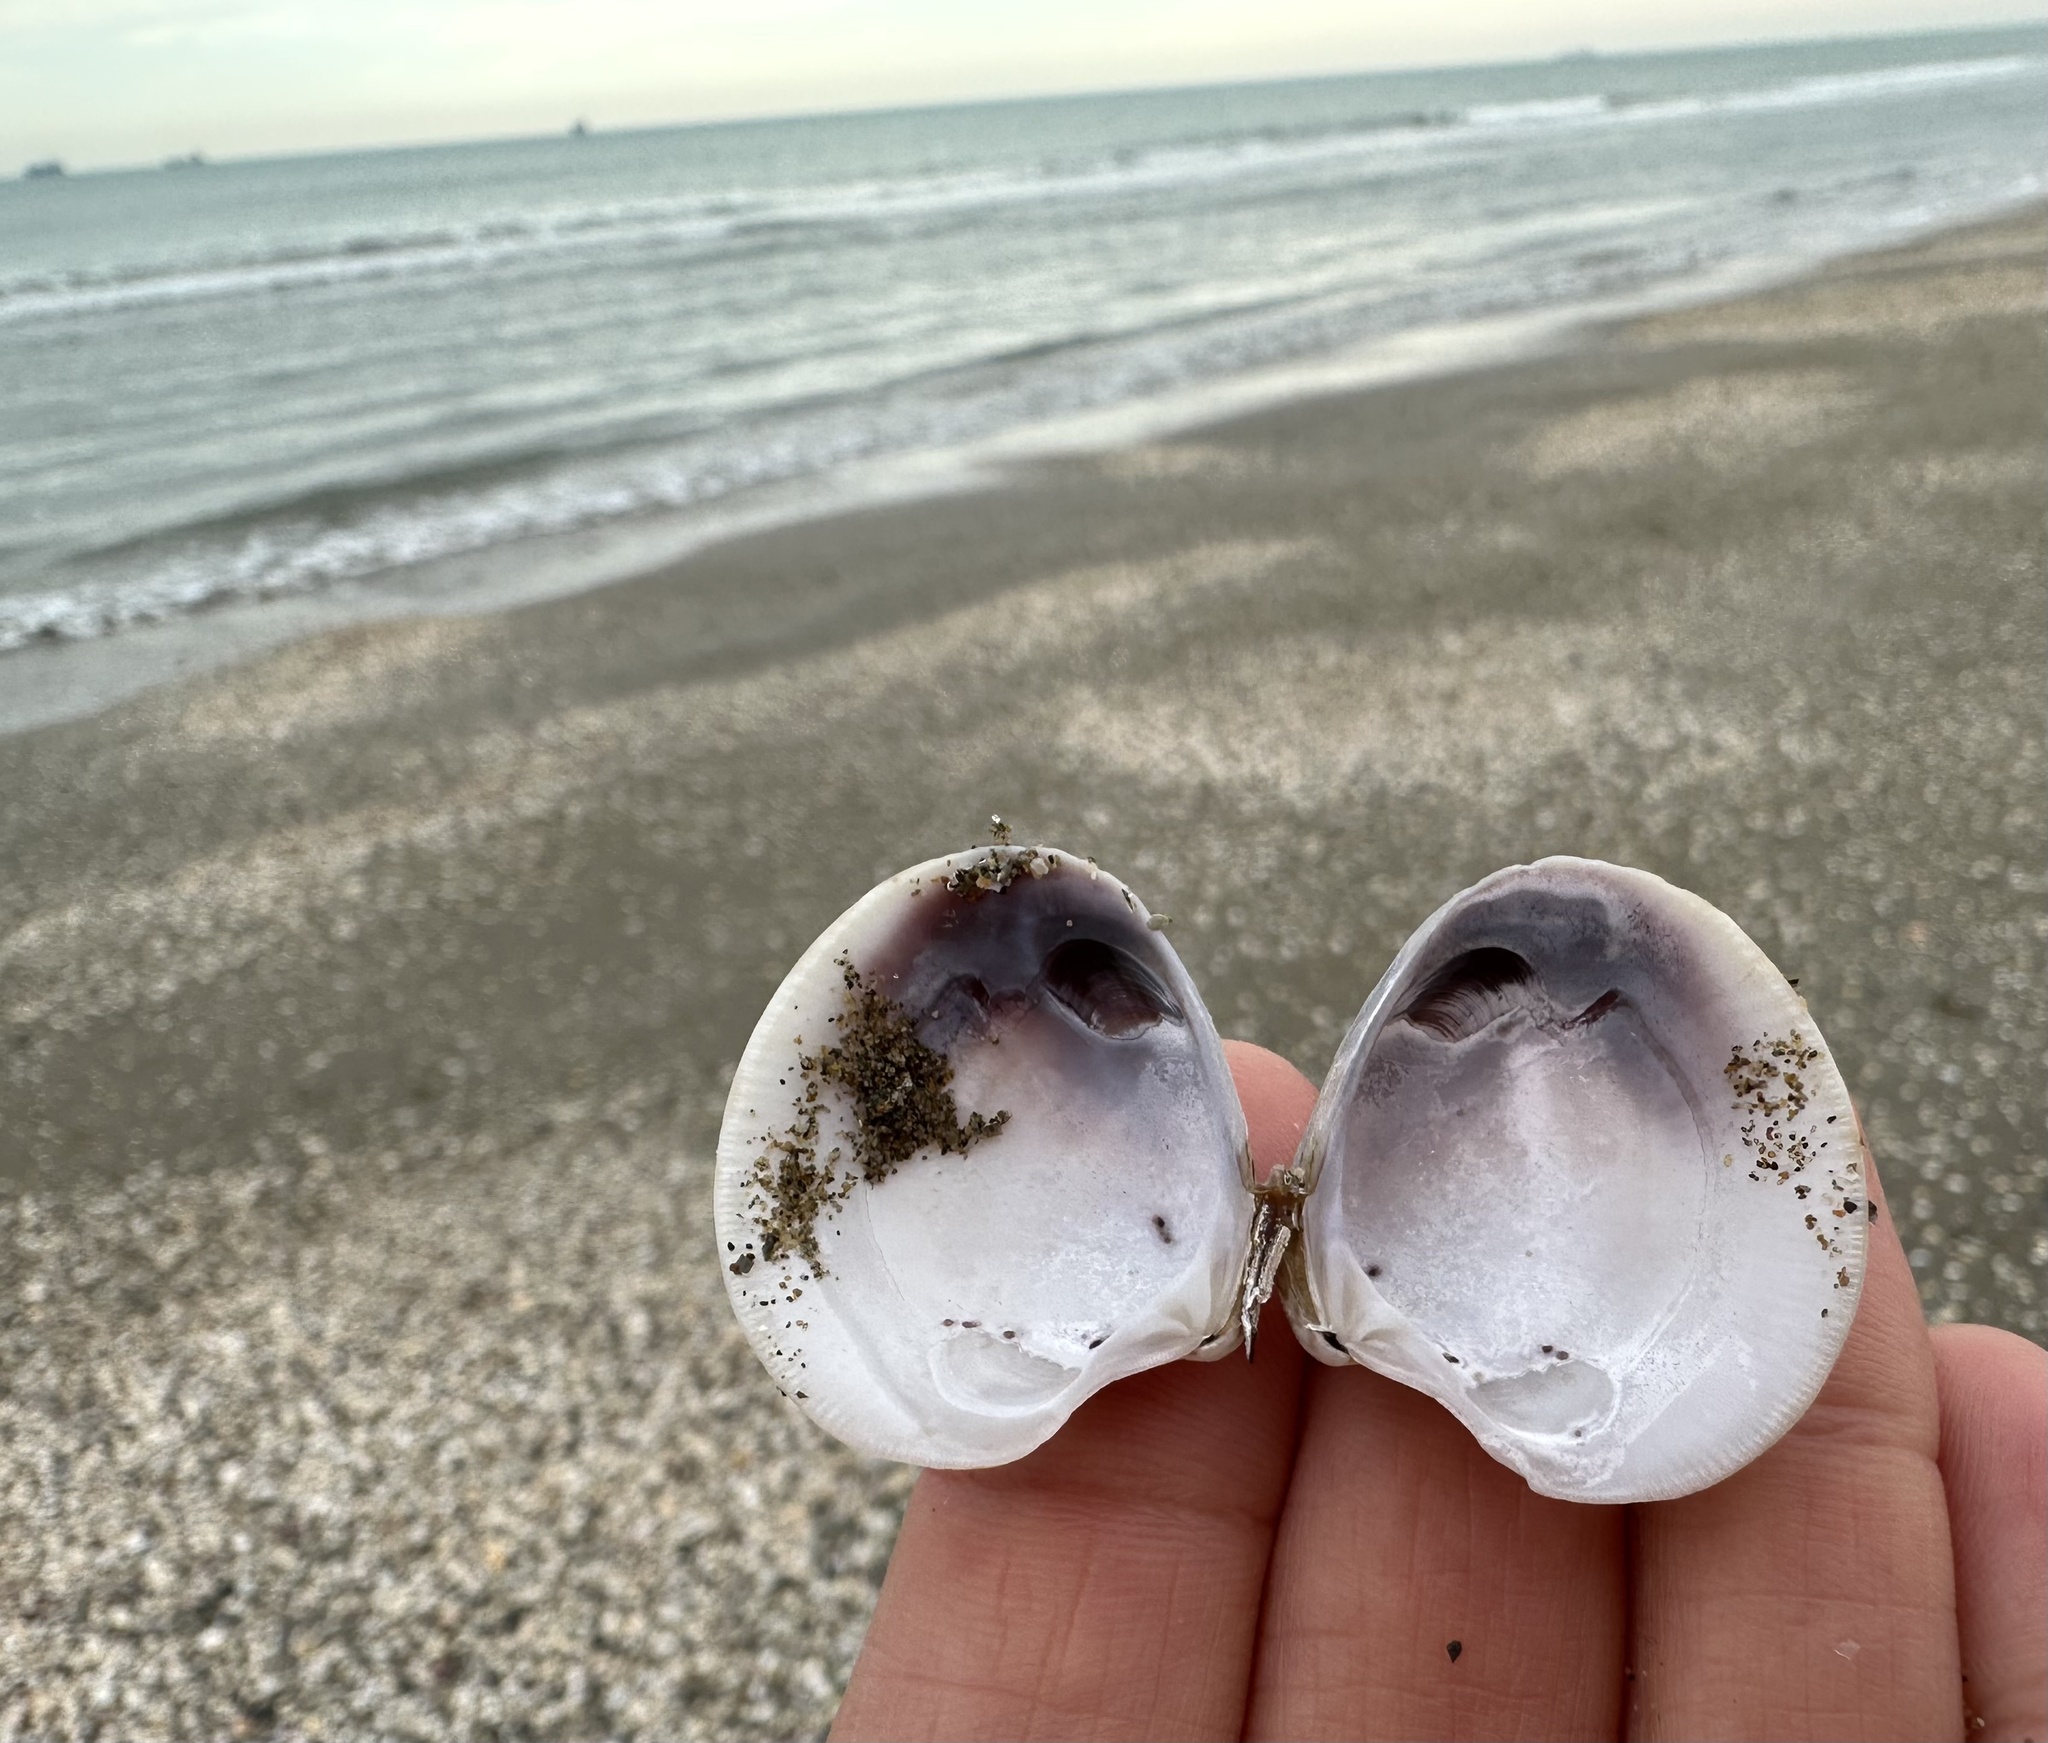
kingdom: Animalia
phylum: Mollusca
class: Bivalvia
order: Venerida
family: Veneridae
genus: Chamelea
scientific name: Chamelea gallina
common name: Chicken venus
